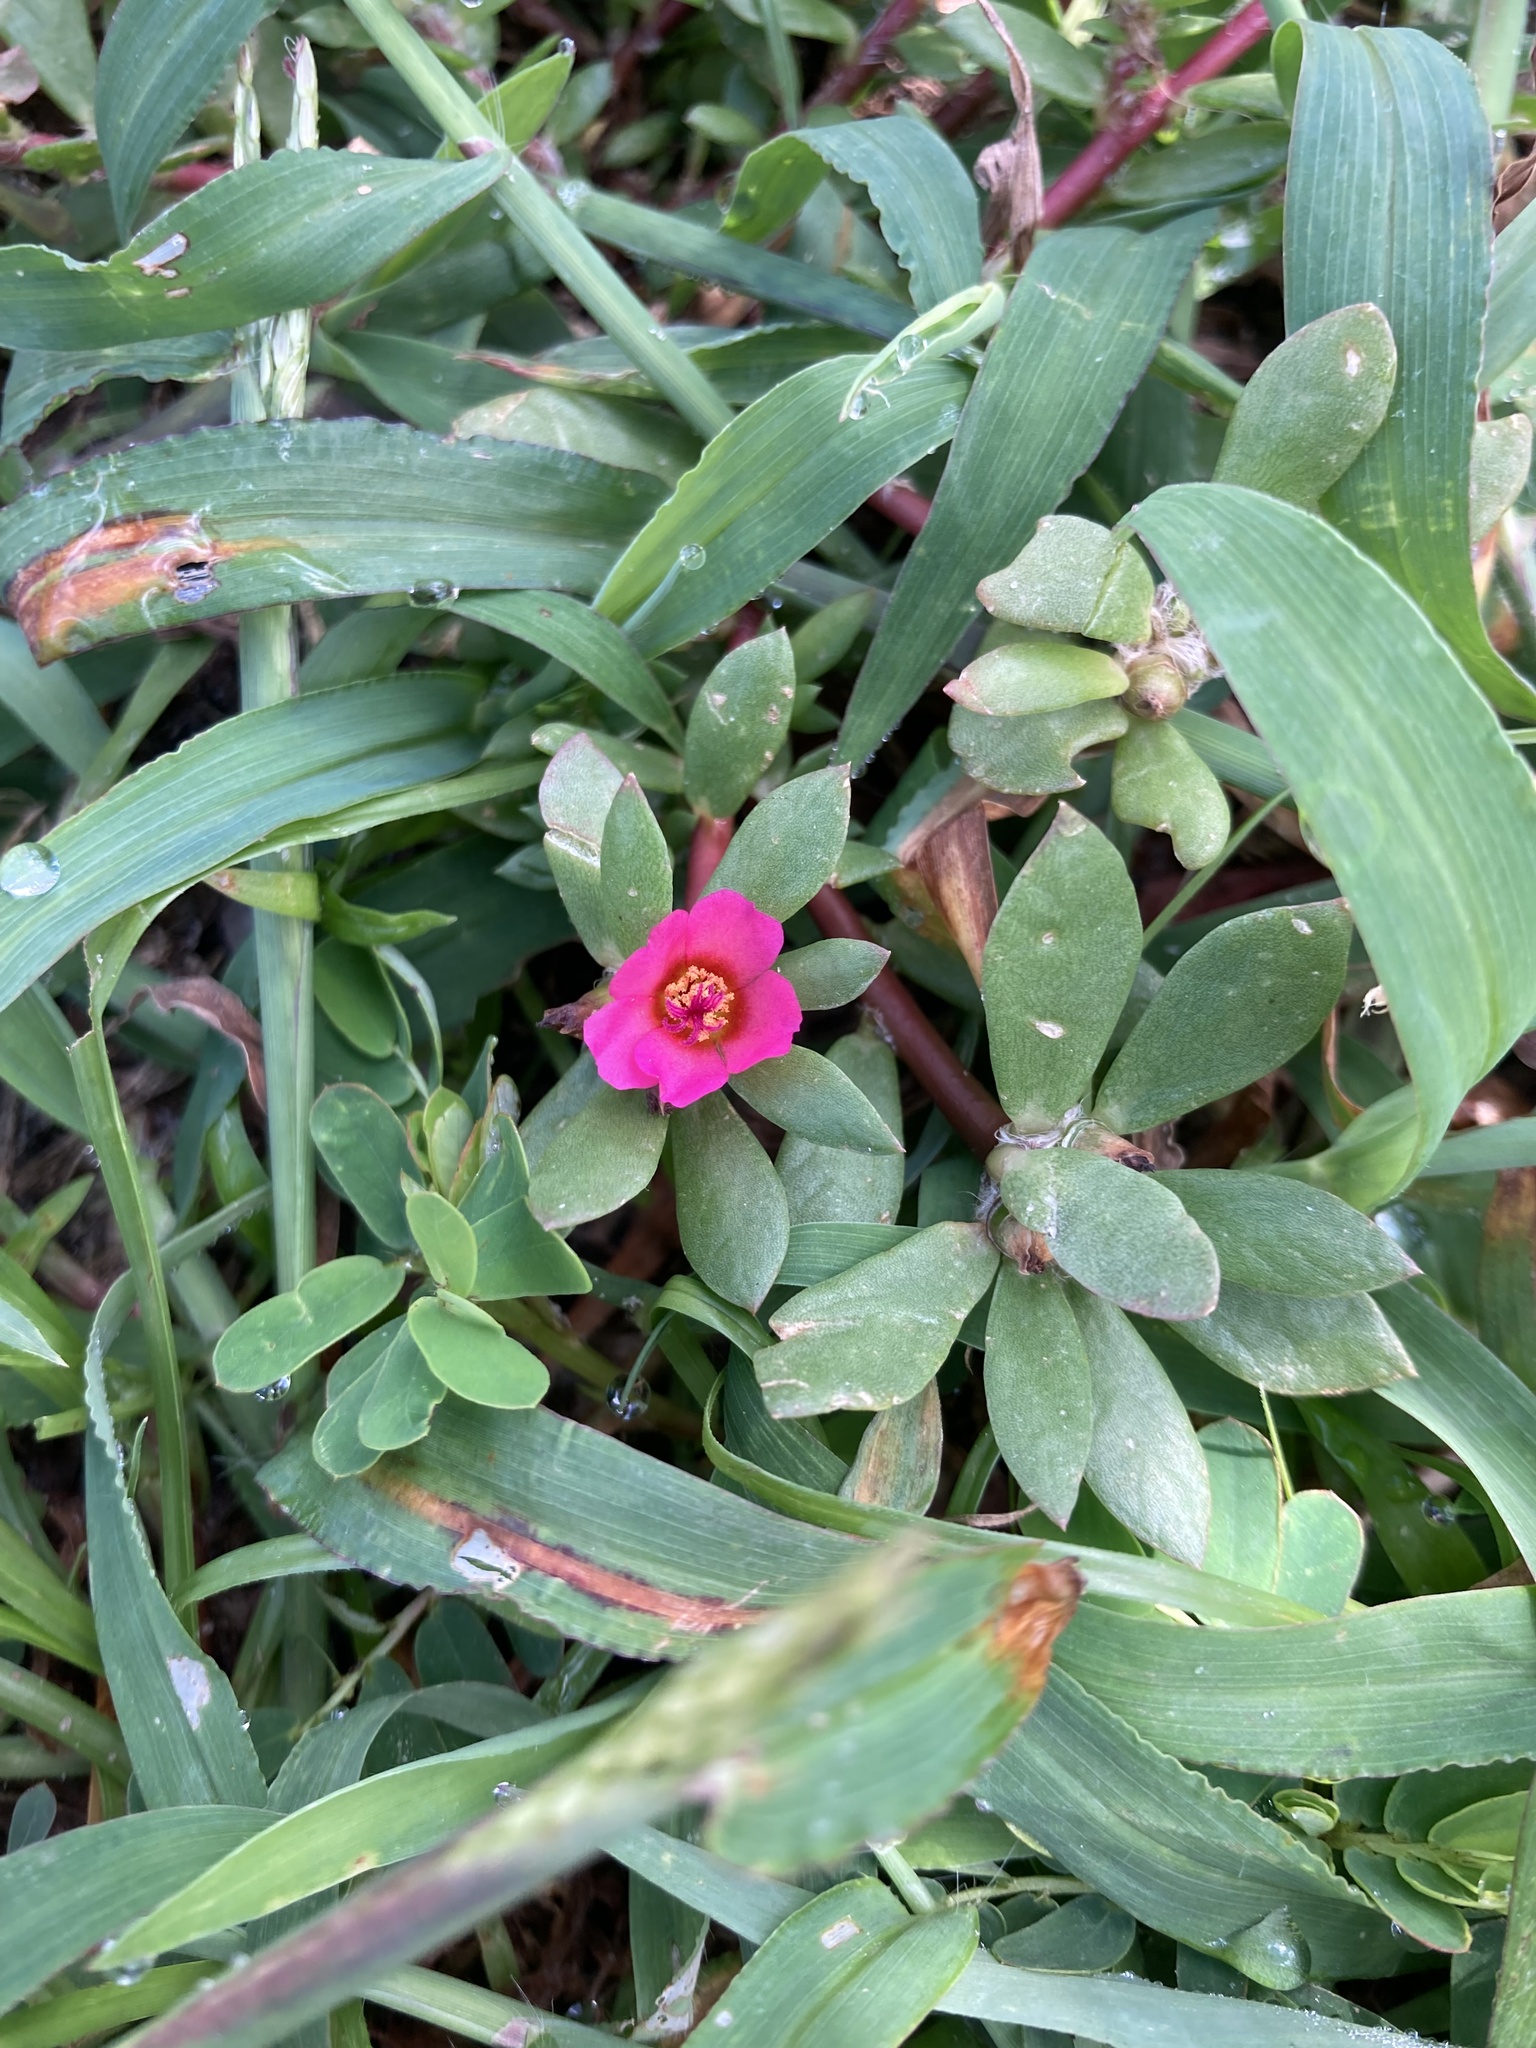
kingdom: Plantae
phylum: Tracheophyta
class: Magnoliopsida
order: Caryophyllales
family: Portulacaceae
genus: Portulaca
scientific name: Portulaca amilis
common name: Paraguayan purslane
